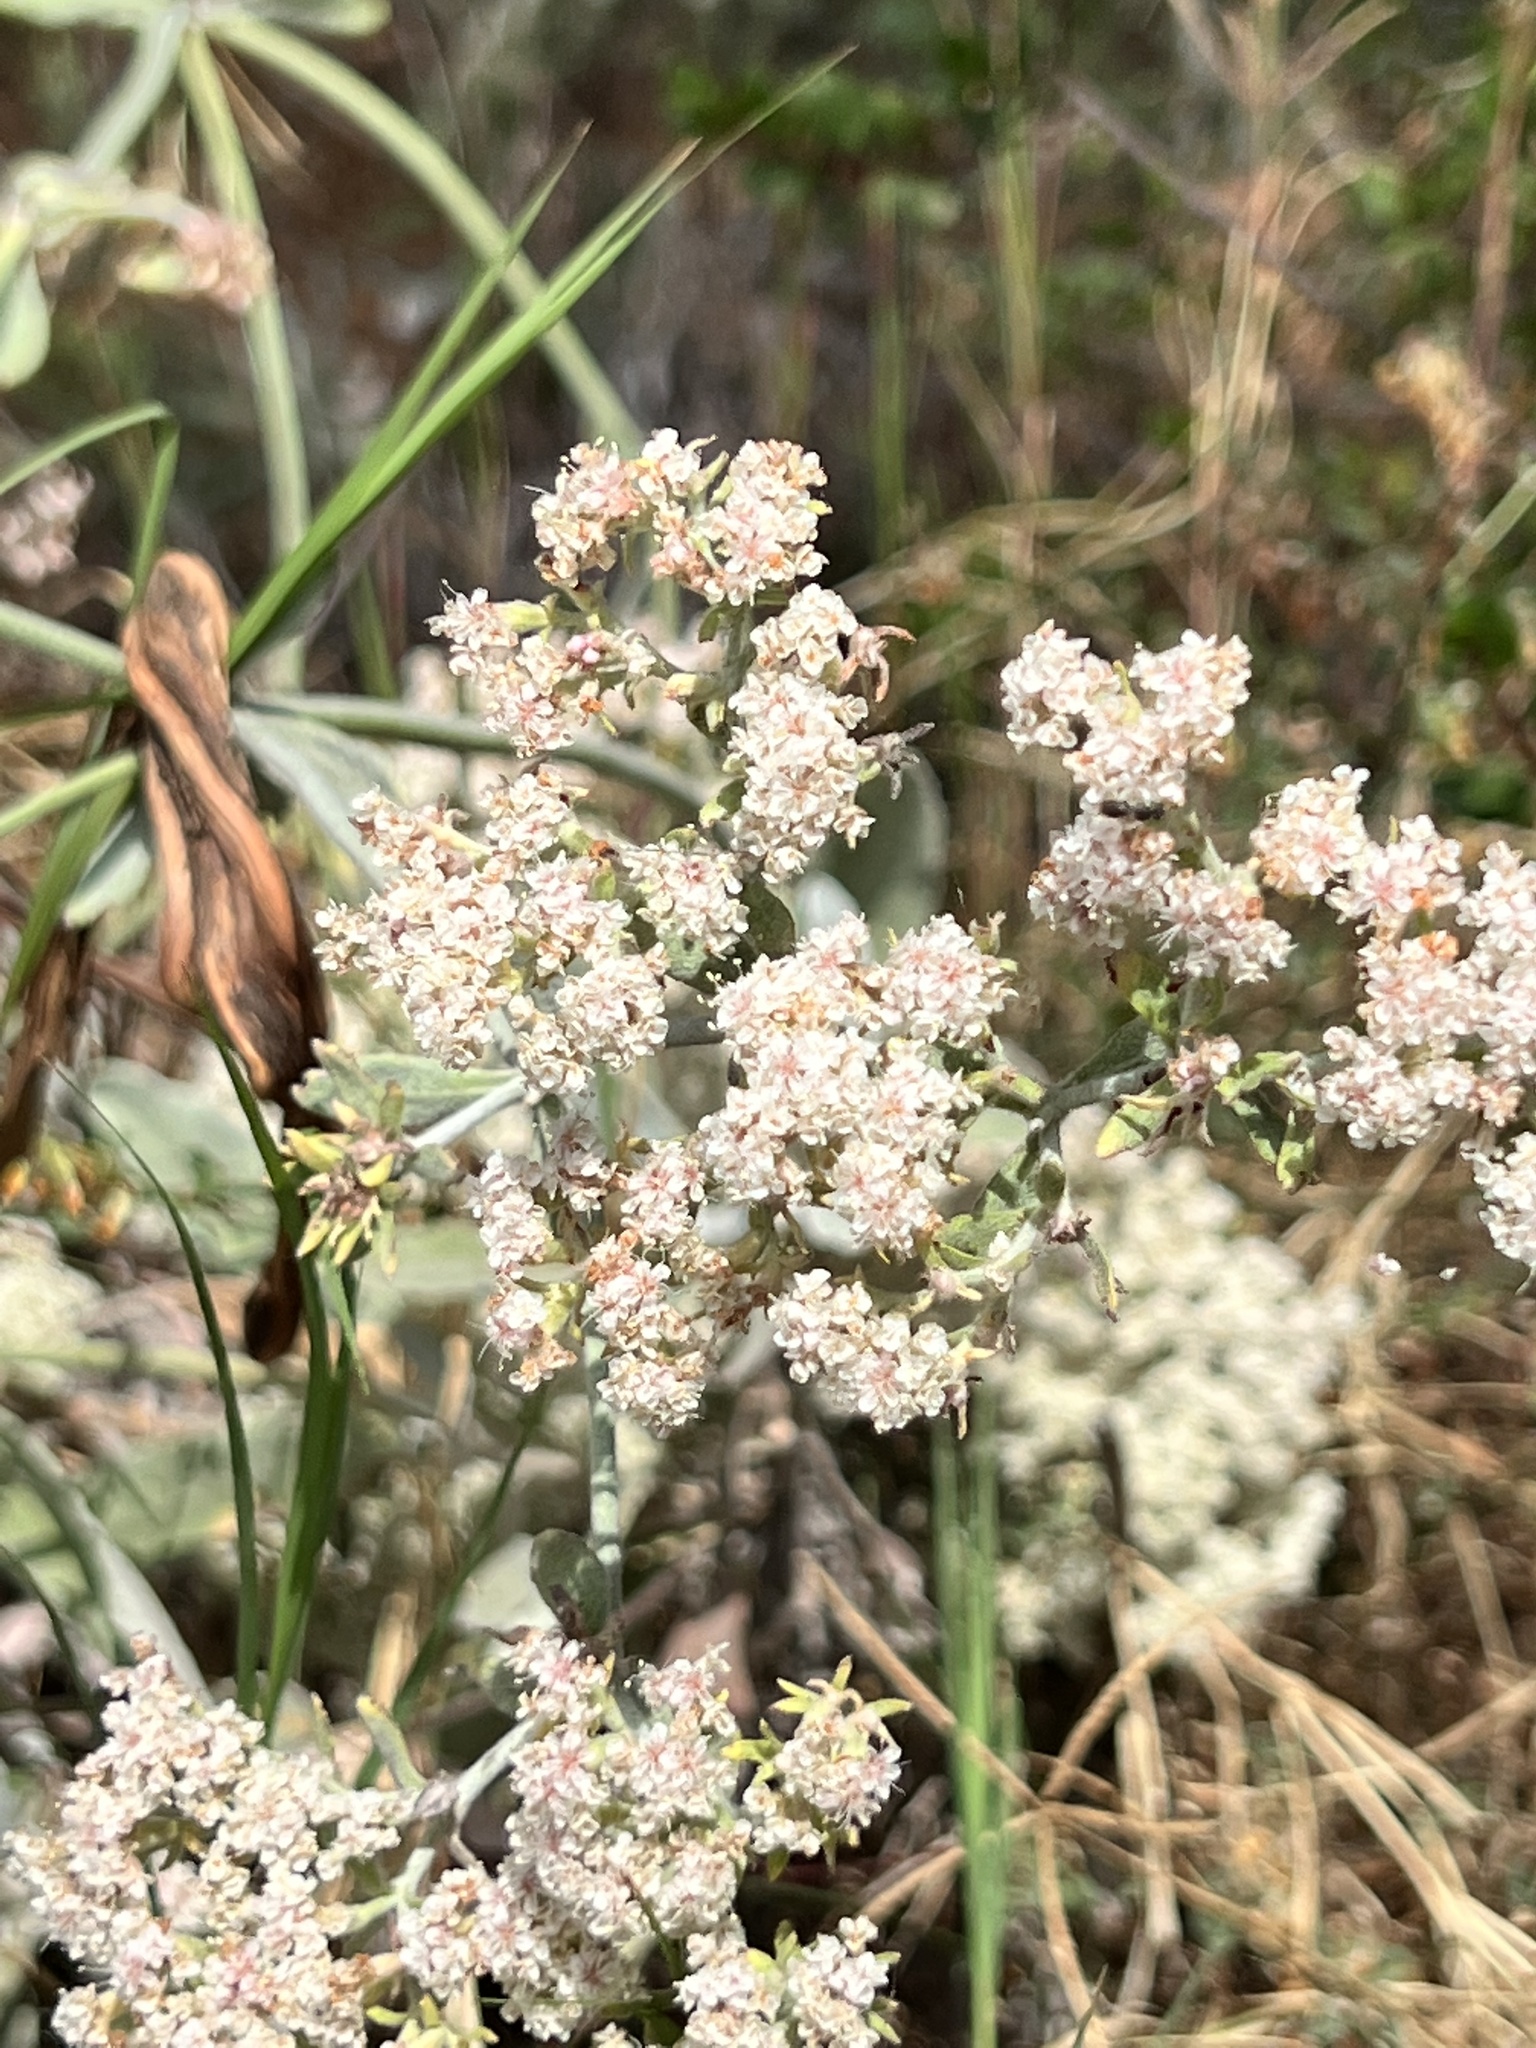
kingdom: Plantae
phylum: Tracheophyta
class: Magnoliopsida
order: Caryophyllales
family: Polygonaceae
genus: Eriogonum
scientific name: Eriogonum fasciculatum
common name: California wild buckwheat
